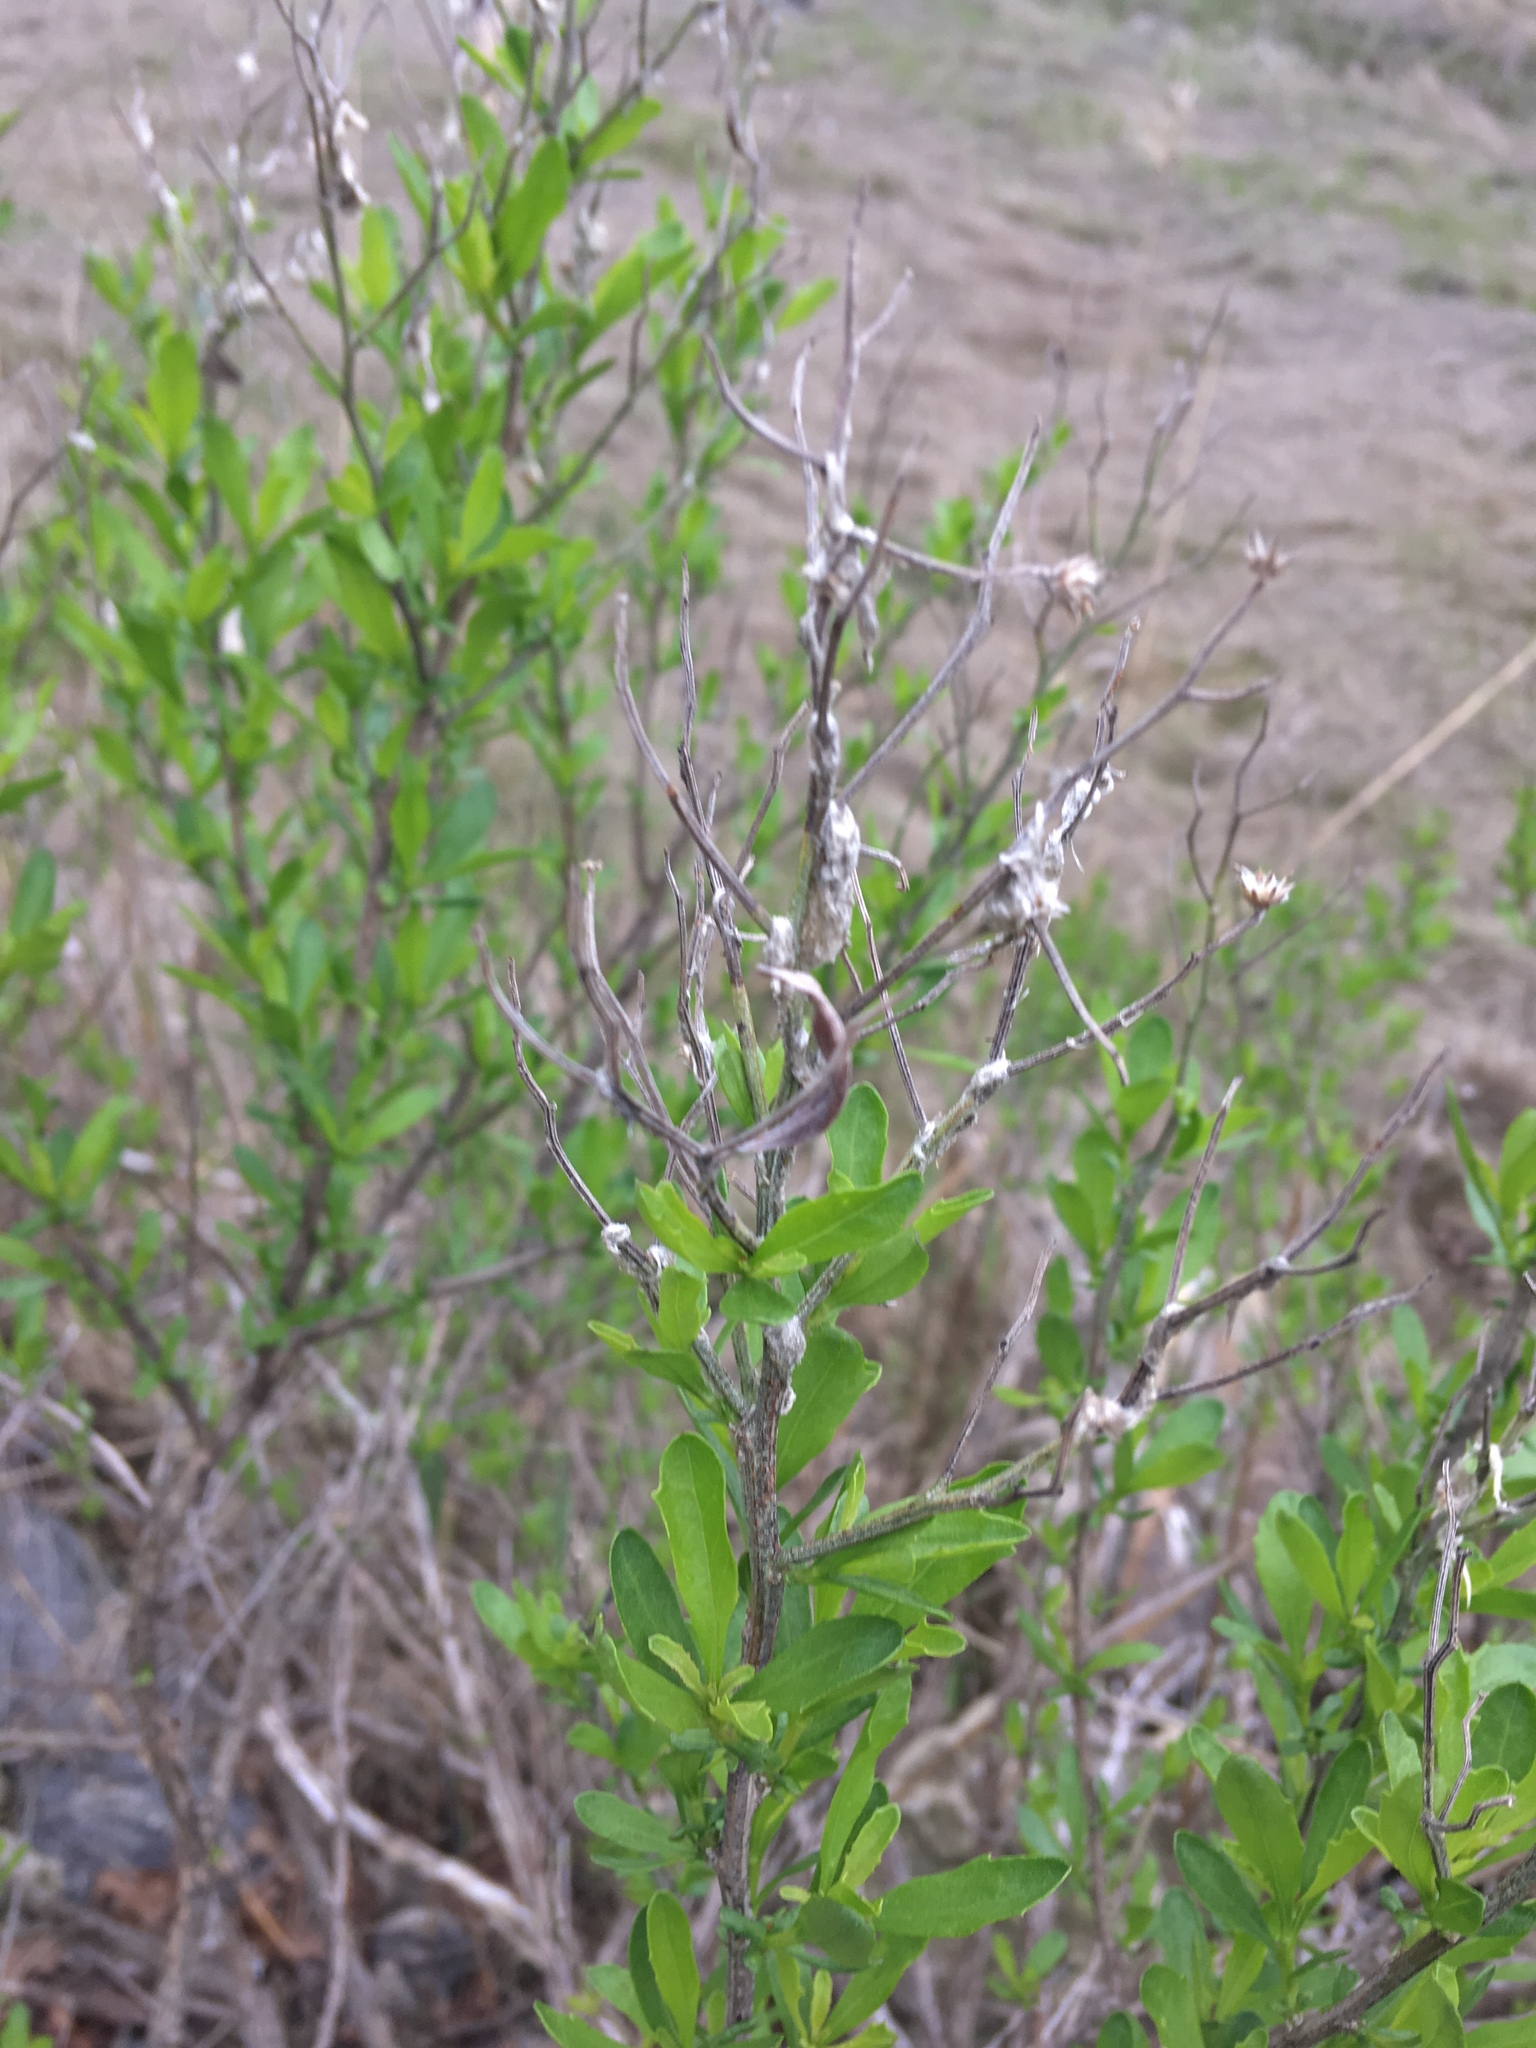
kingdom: Plantae
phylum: Tracheophyta
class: Magnoliopsida
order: Asterales
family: Asteraceae
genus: Baccharis
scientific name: Baccharis halimifolia
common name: Eastern baccharis
